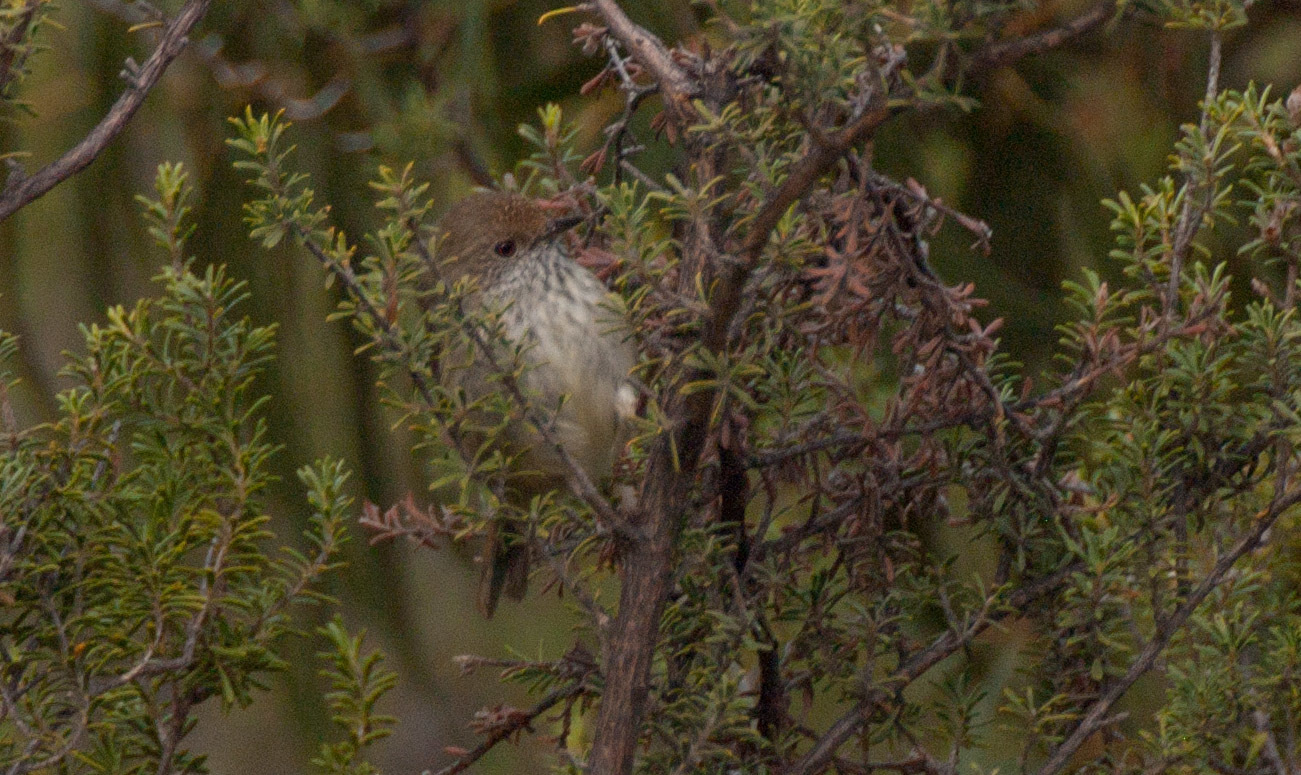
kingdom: Animalia
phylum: Chordata
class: Aves
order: Passeriformes
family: Acanthizidae
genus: Acanthiza
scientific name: Acanthiza pusilla
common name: Brown thornbill
